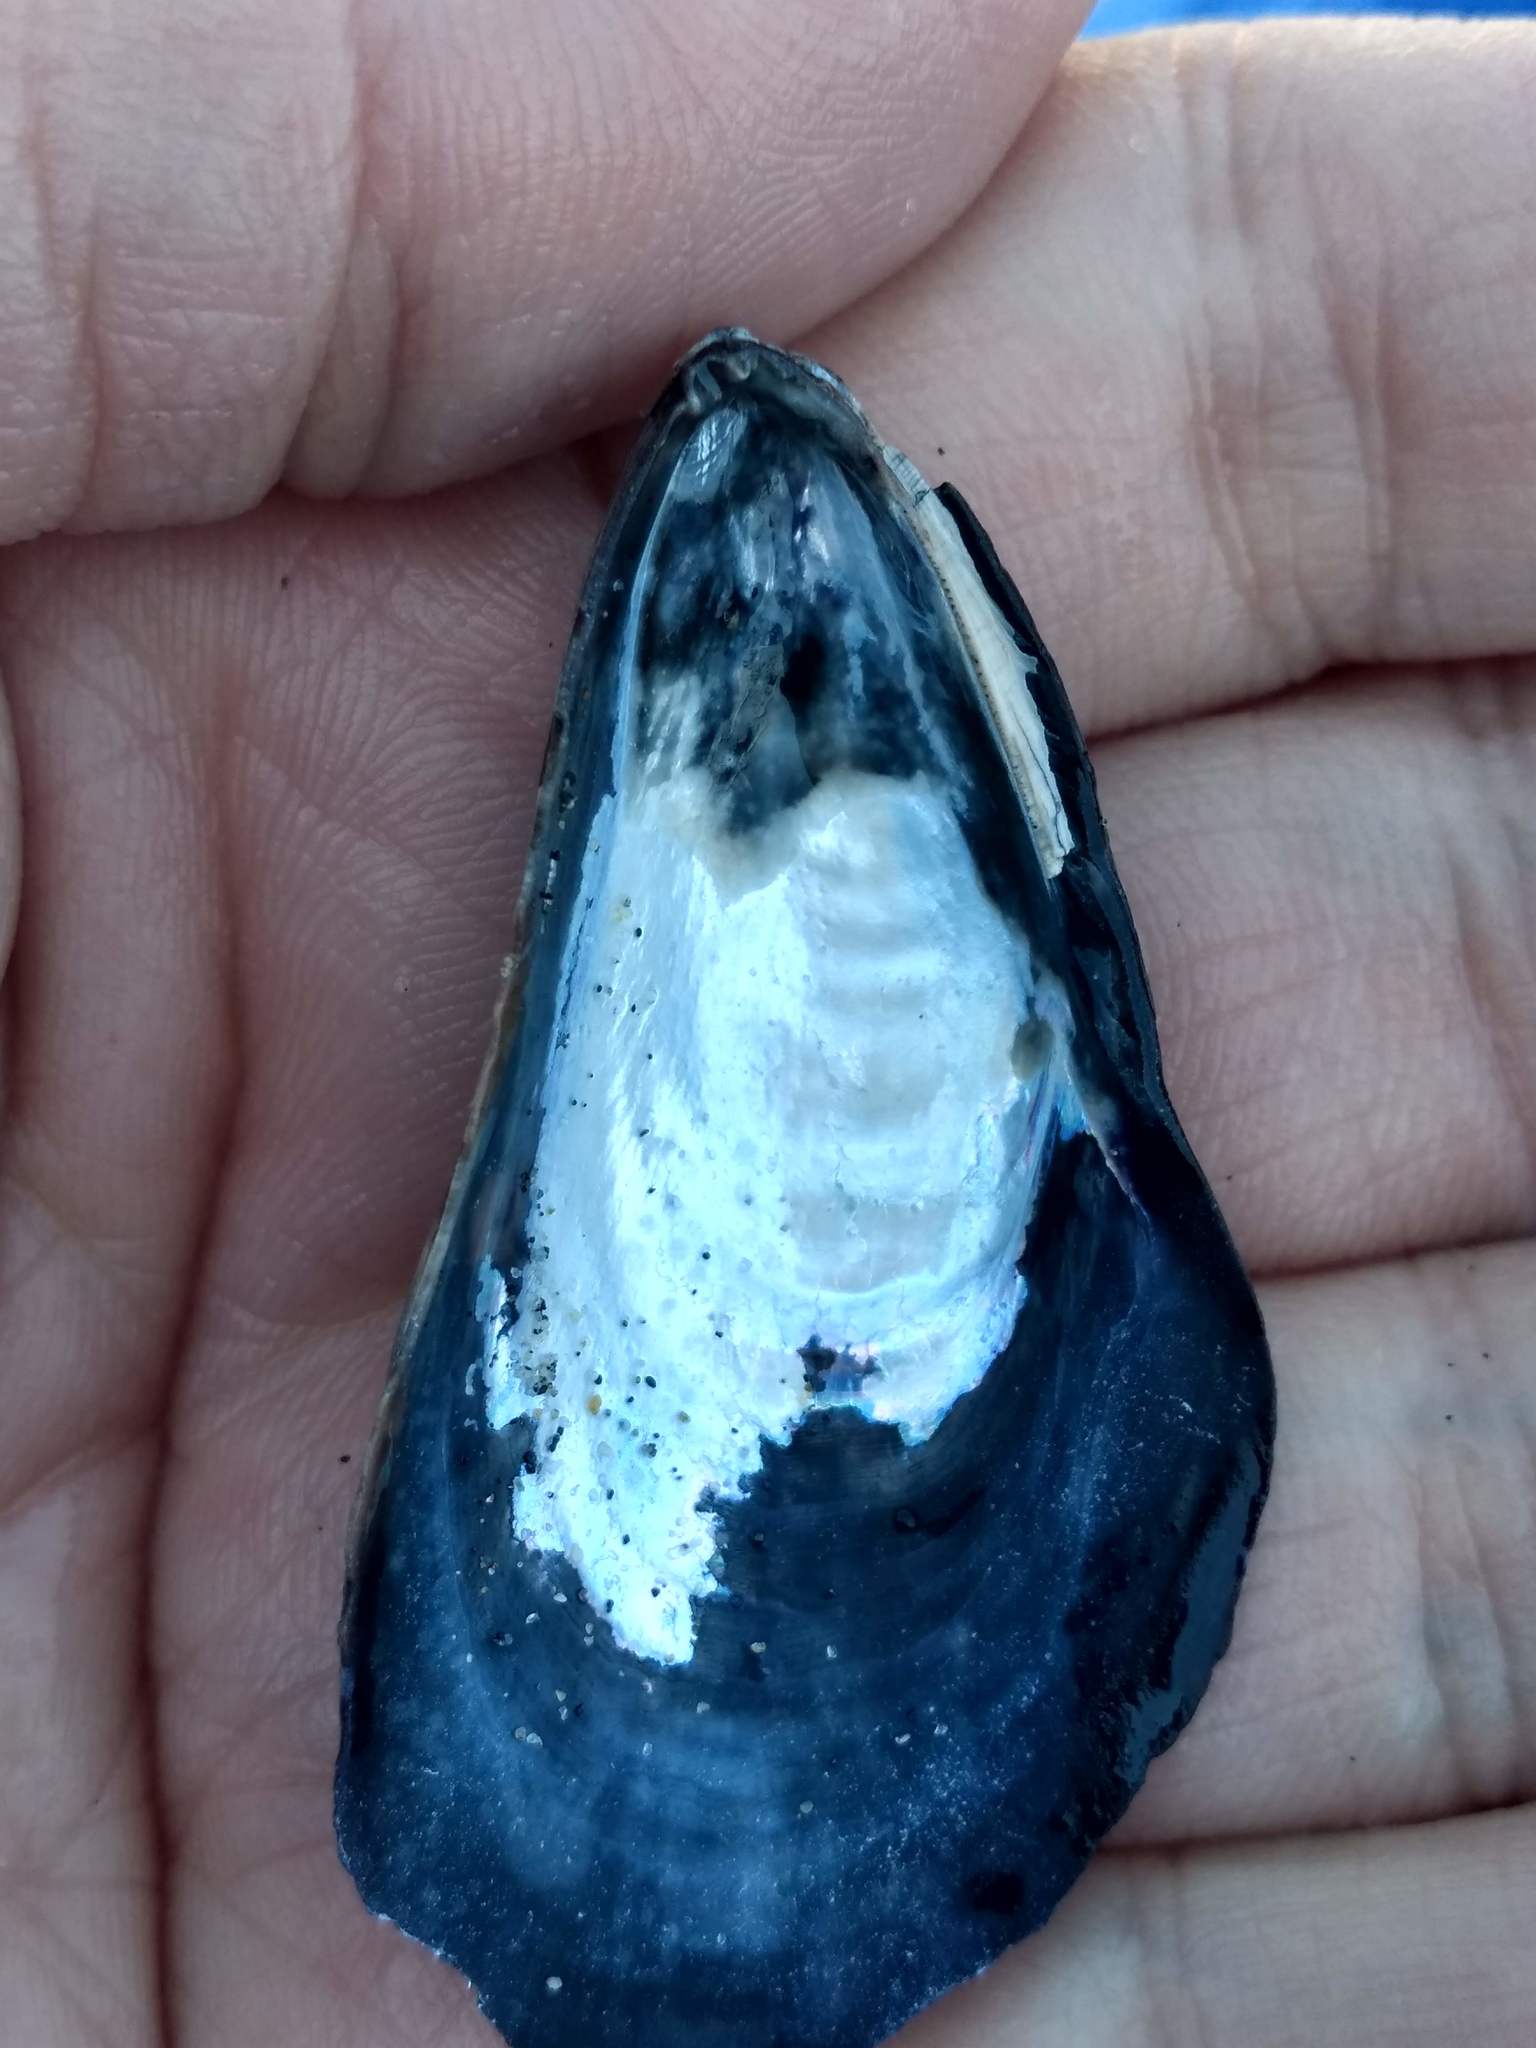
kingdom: Animalia
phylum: Mollusca
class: Bivalvia
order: Mytilida
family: Mytilidae
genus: Mytilus
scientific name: Mytilus californianus
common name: California mussel
